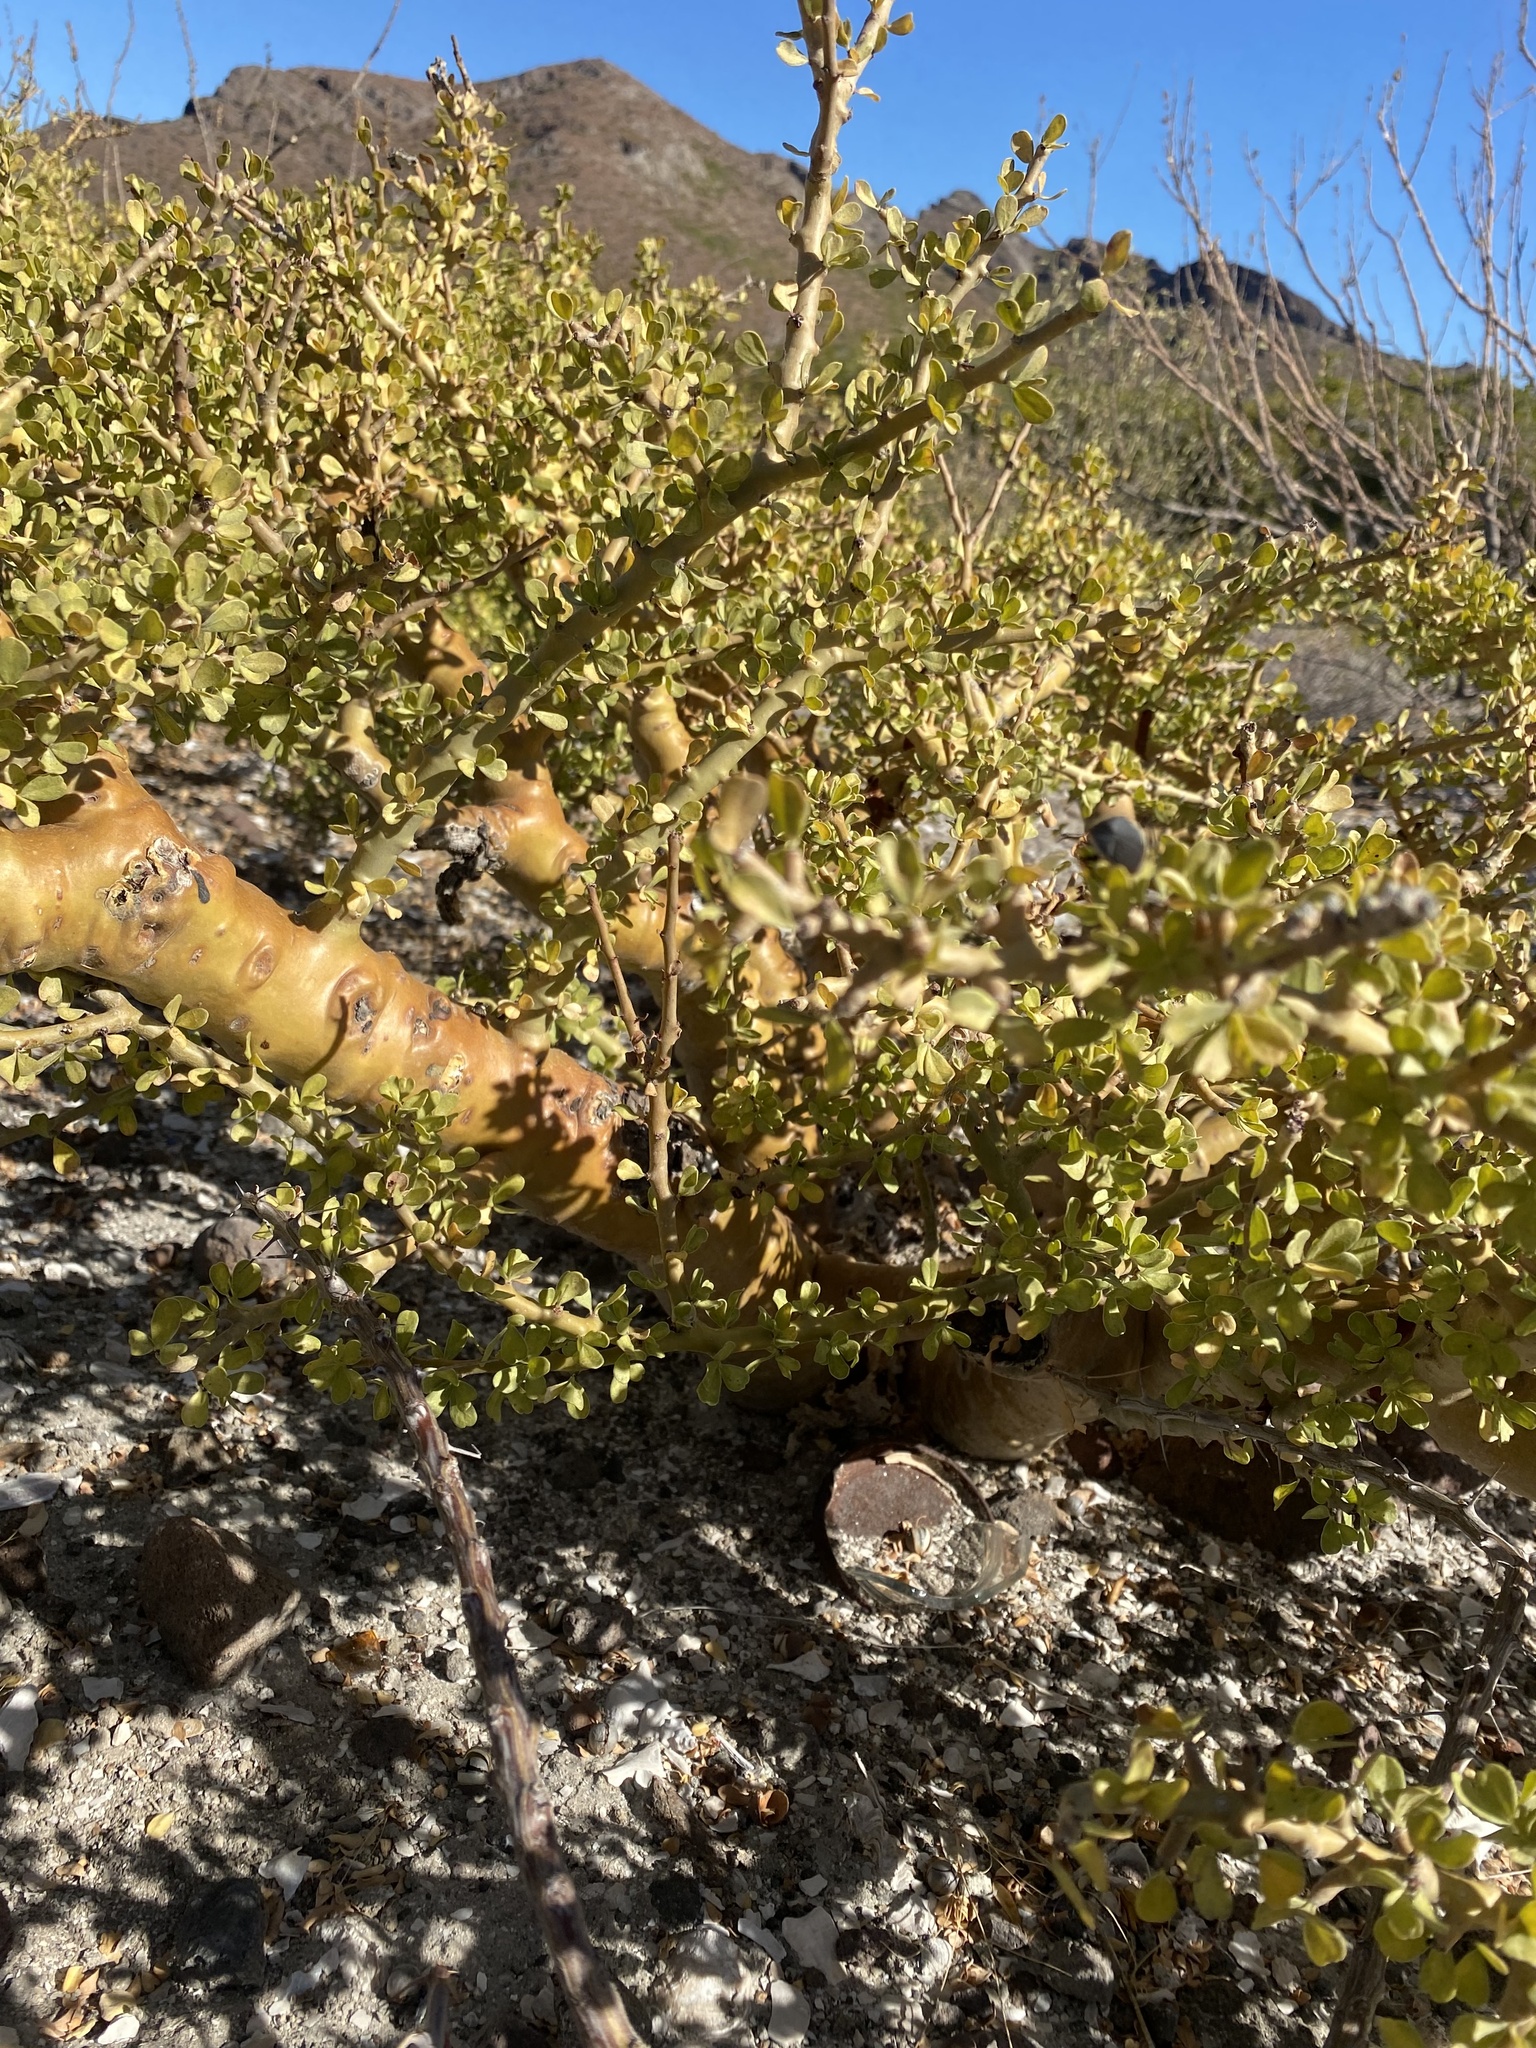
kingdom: Plantae
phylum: Tracheophyta
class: Magnoliopsida
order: Malpighiales
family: Euphorbiaceae
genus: Jatropha
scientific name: Jatropha cuneata
